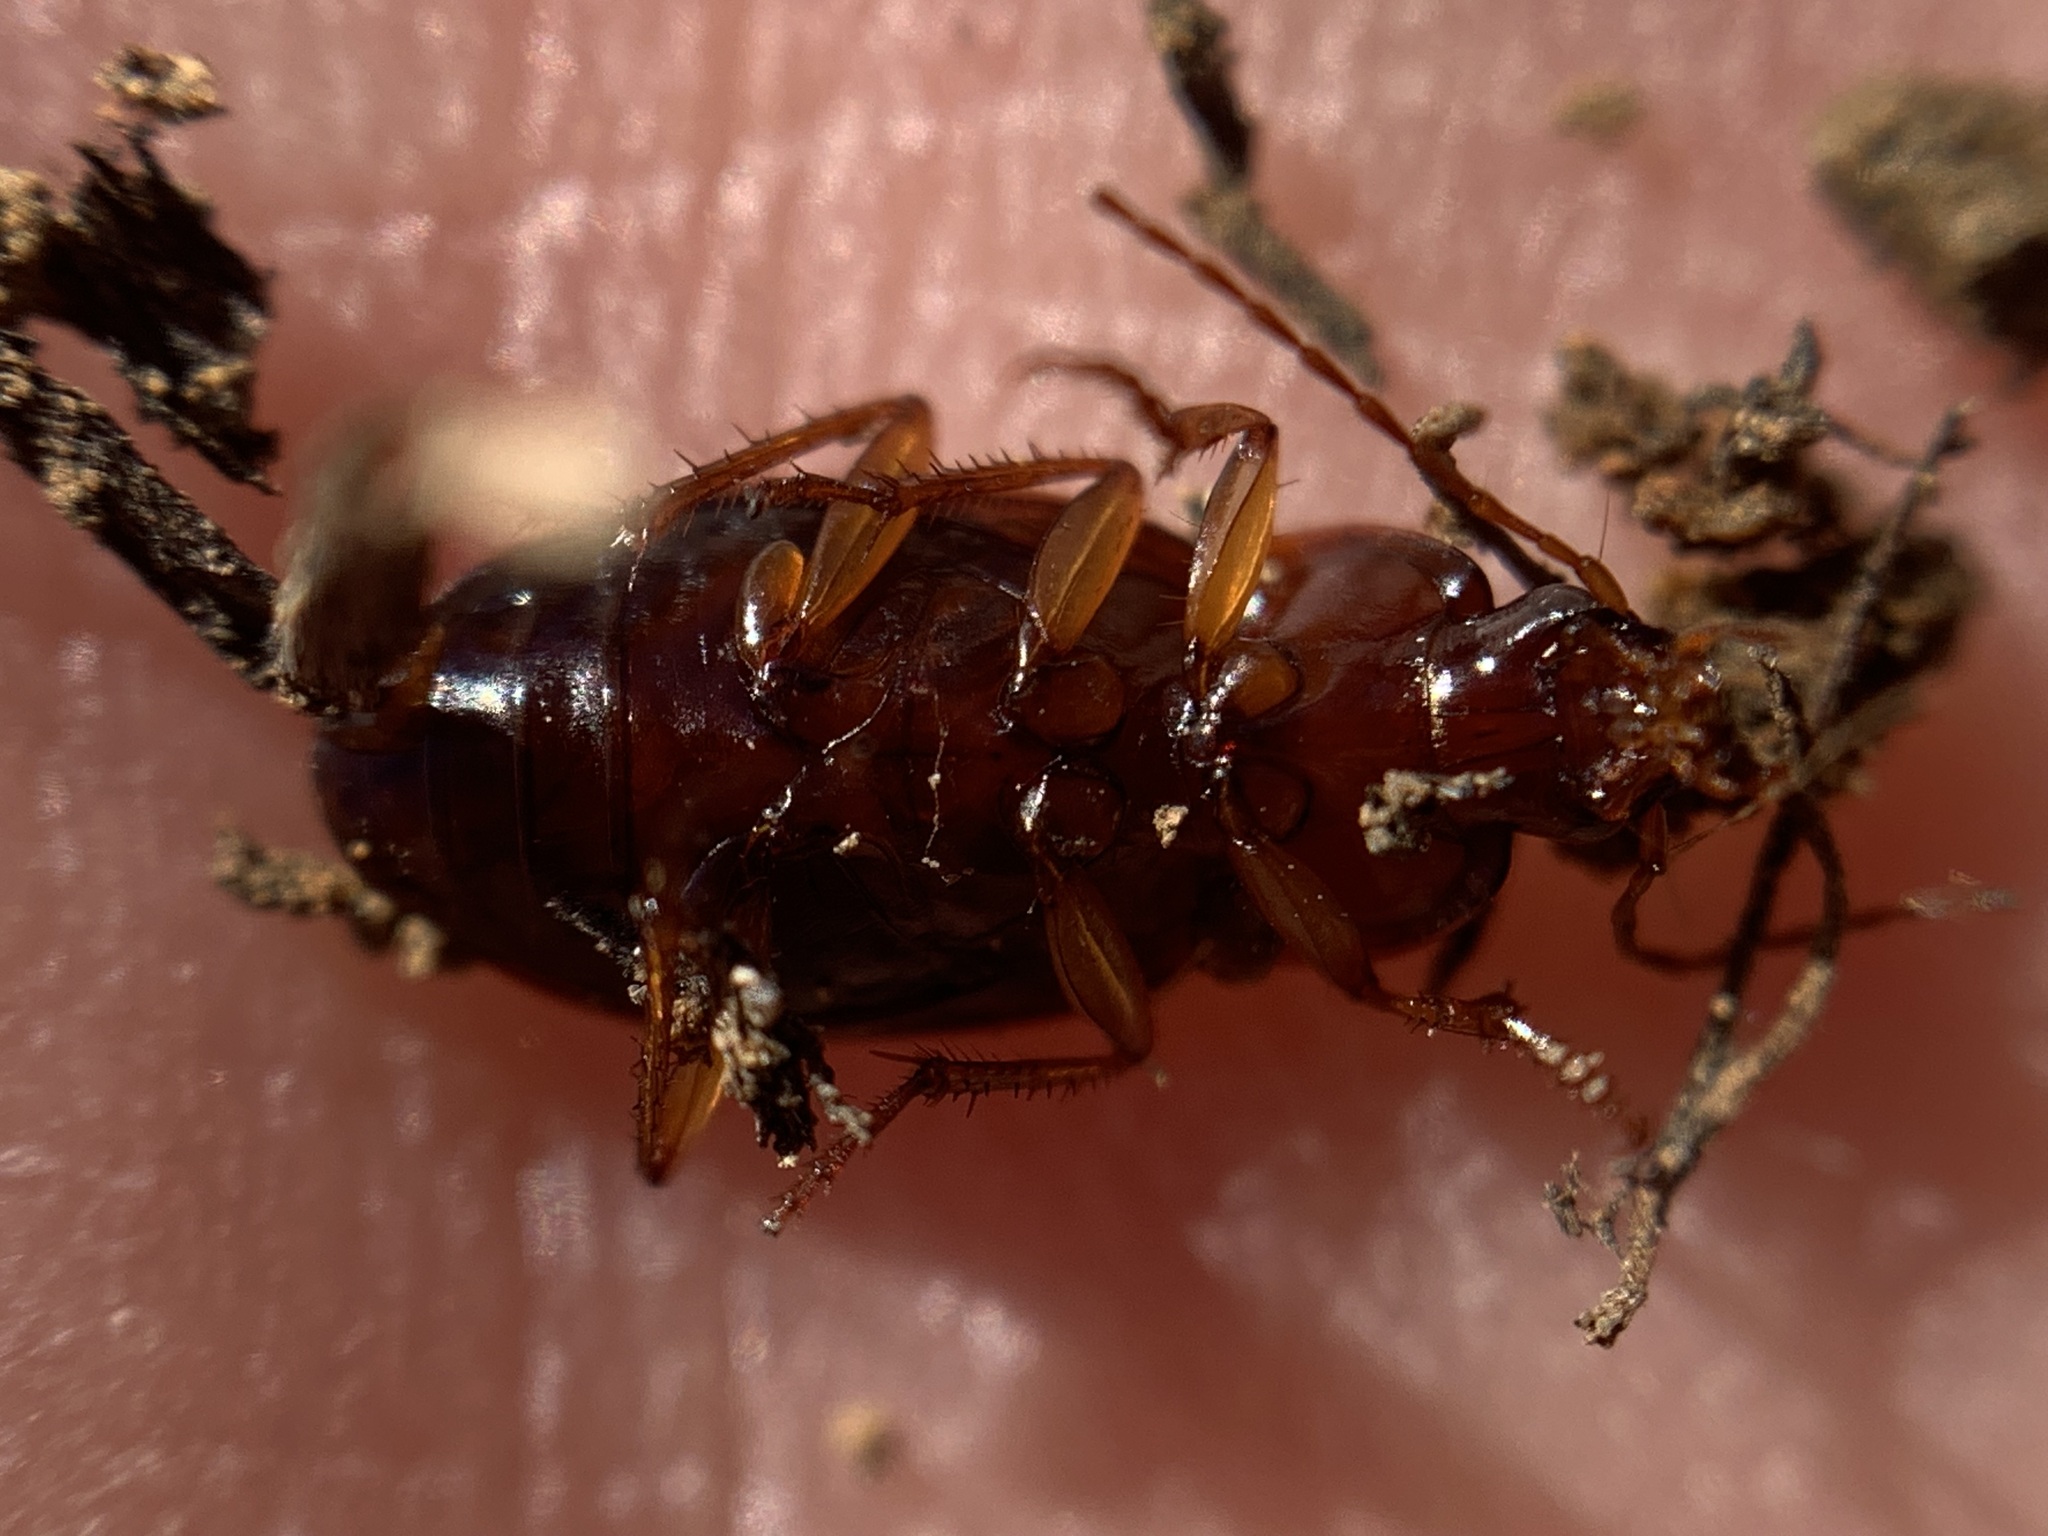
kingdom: Animalia
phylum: Arthropoda
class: Insecta
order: Coleoptera
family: Carabidae
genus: Calathus
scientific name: Calathus ruficollis
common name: Red-collared harp ground beetle
